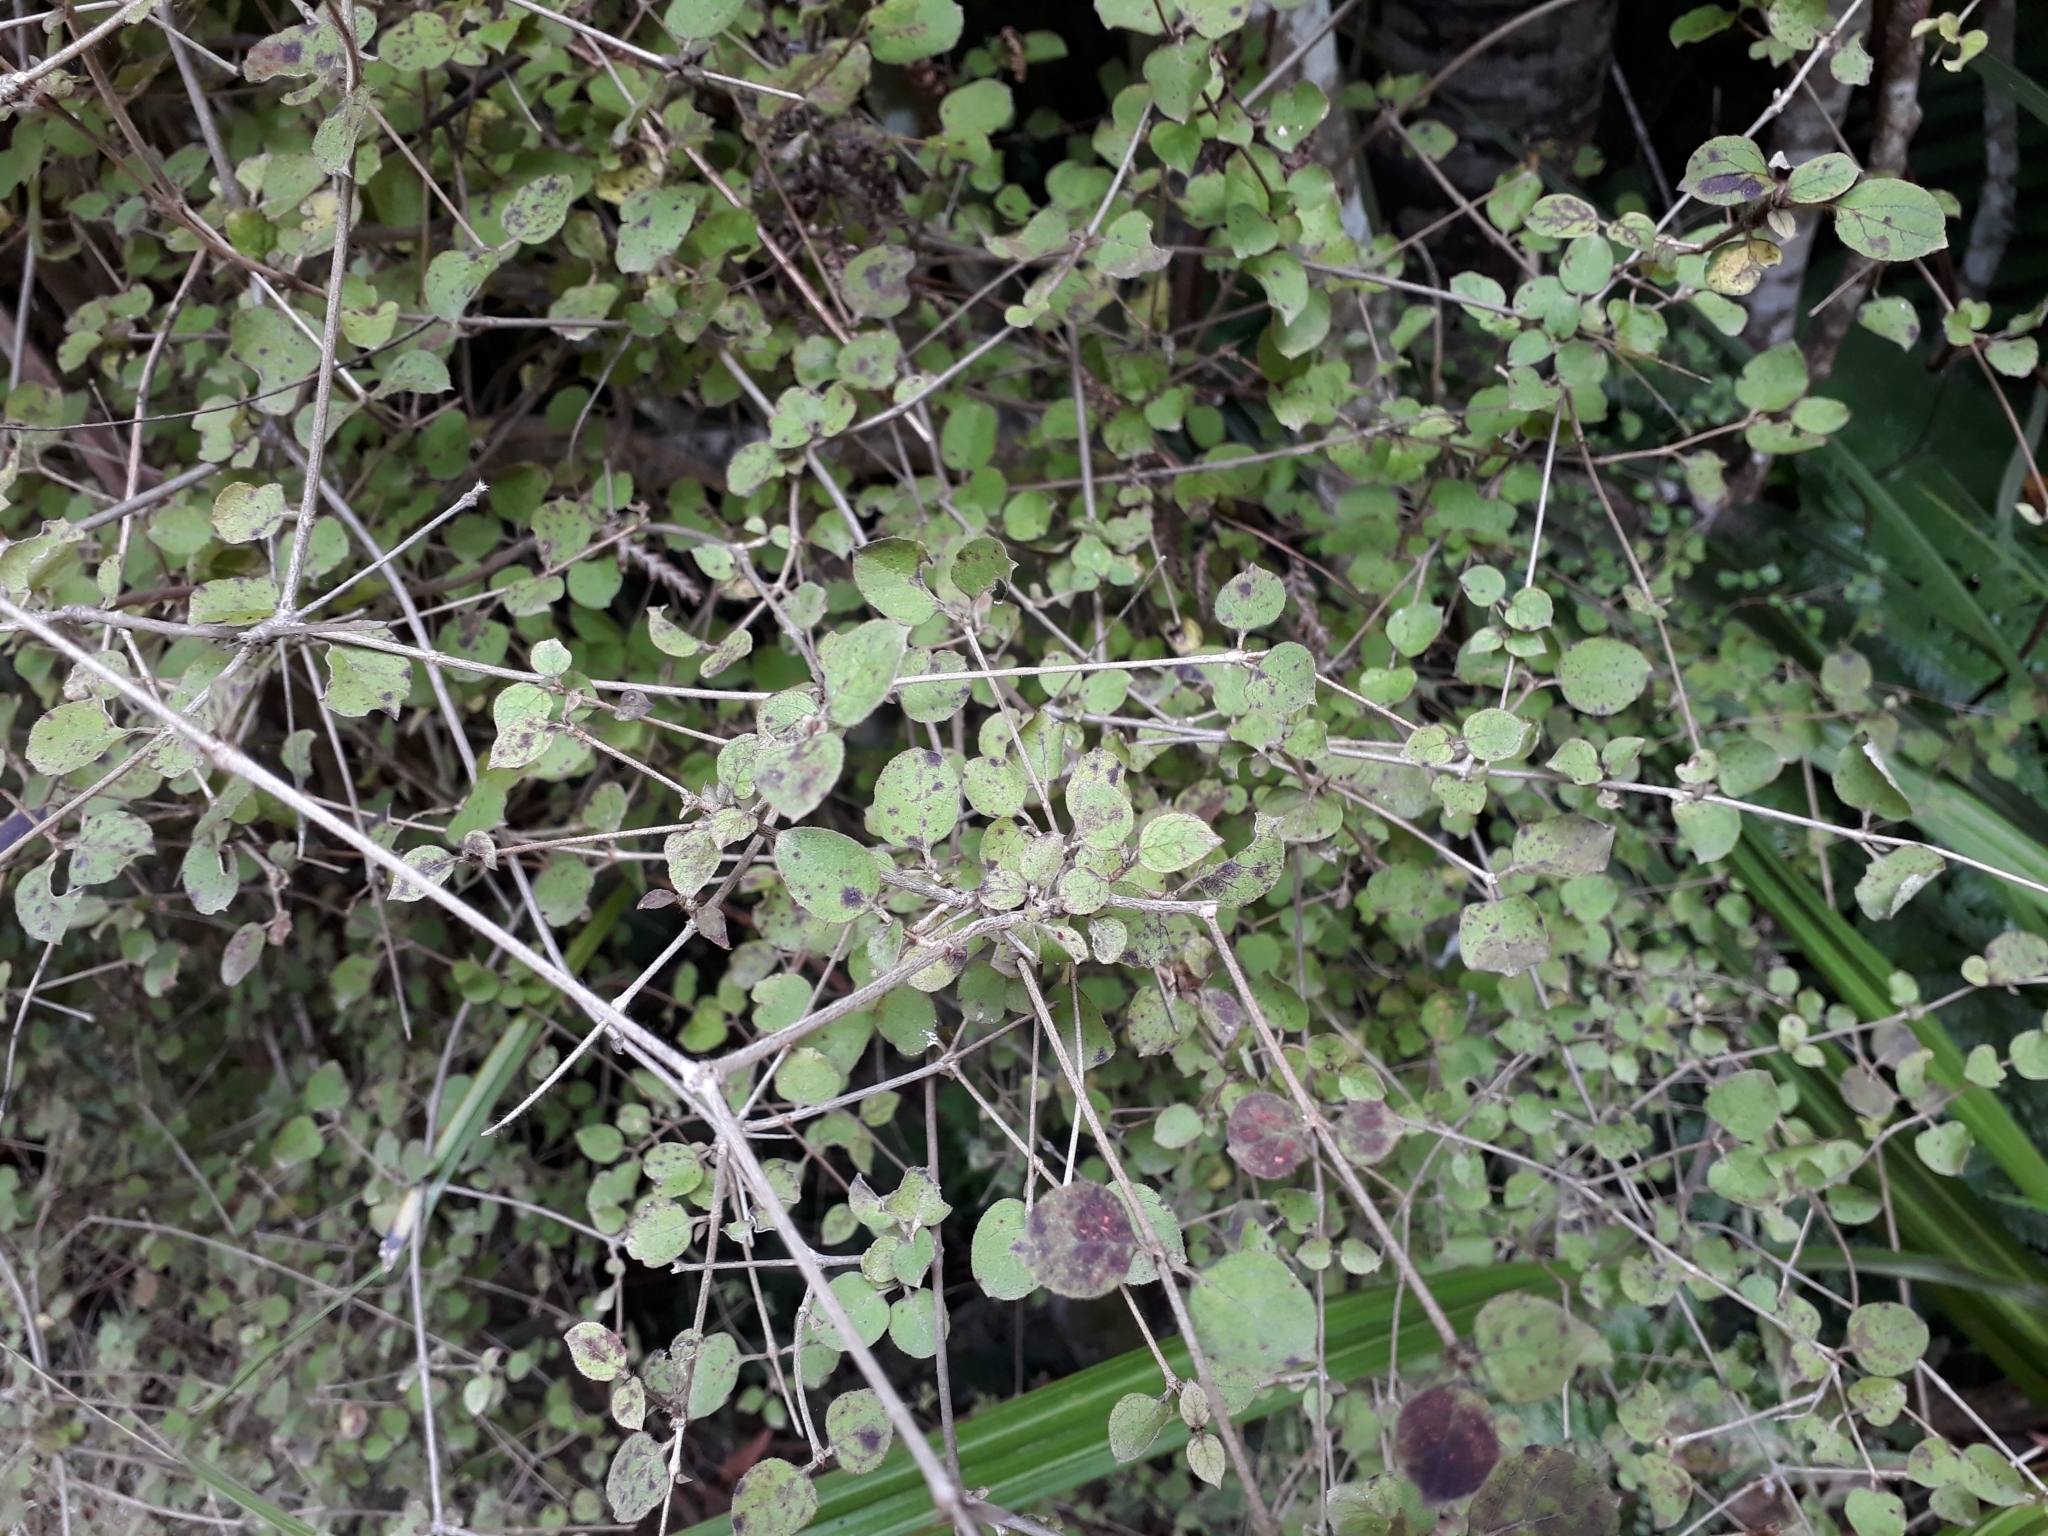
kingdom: Plantae
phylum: Tracheophyta
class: Magnoliopsida
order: Gentianales
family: Rubiaceae
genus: Coprosma
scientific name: Coprosma rotundifolia
